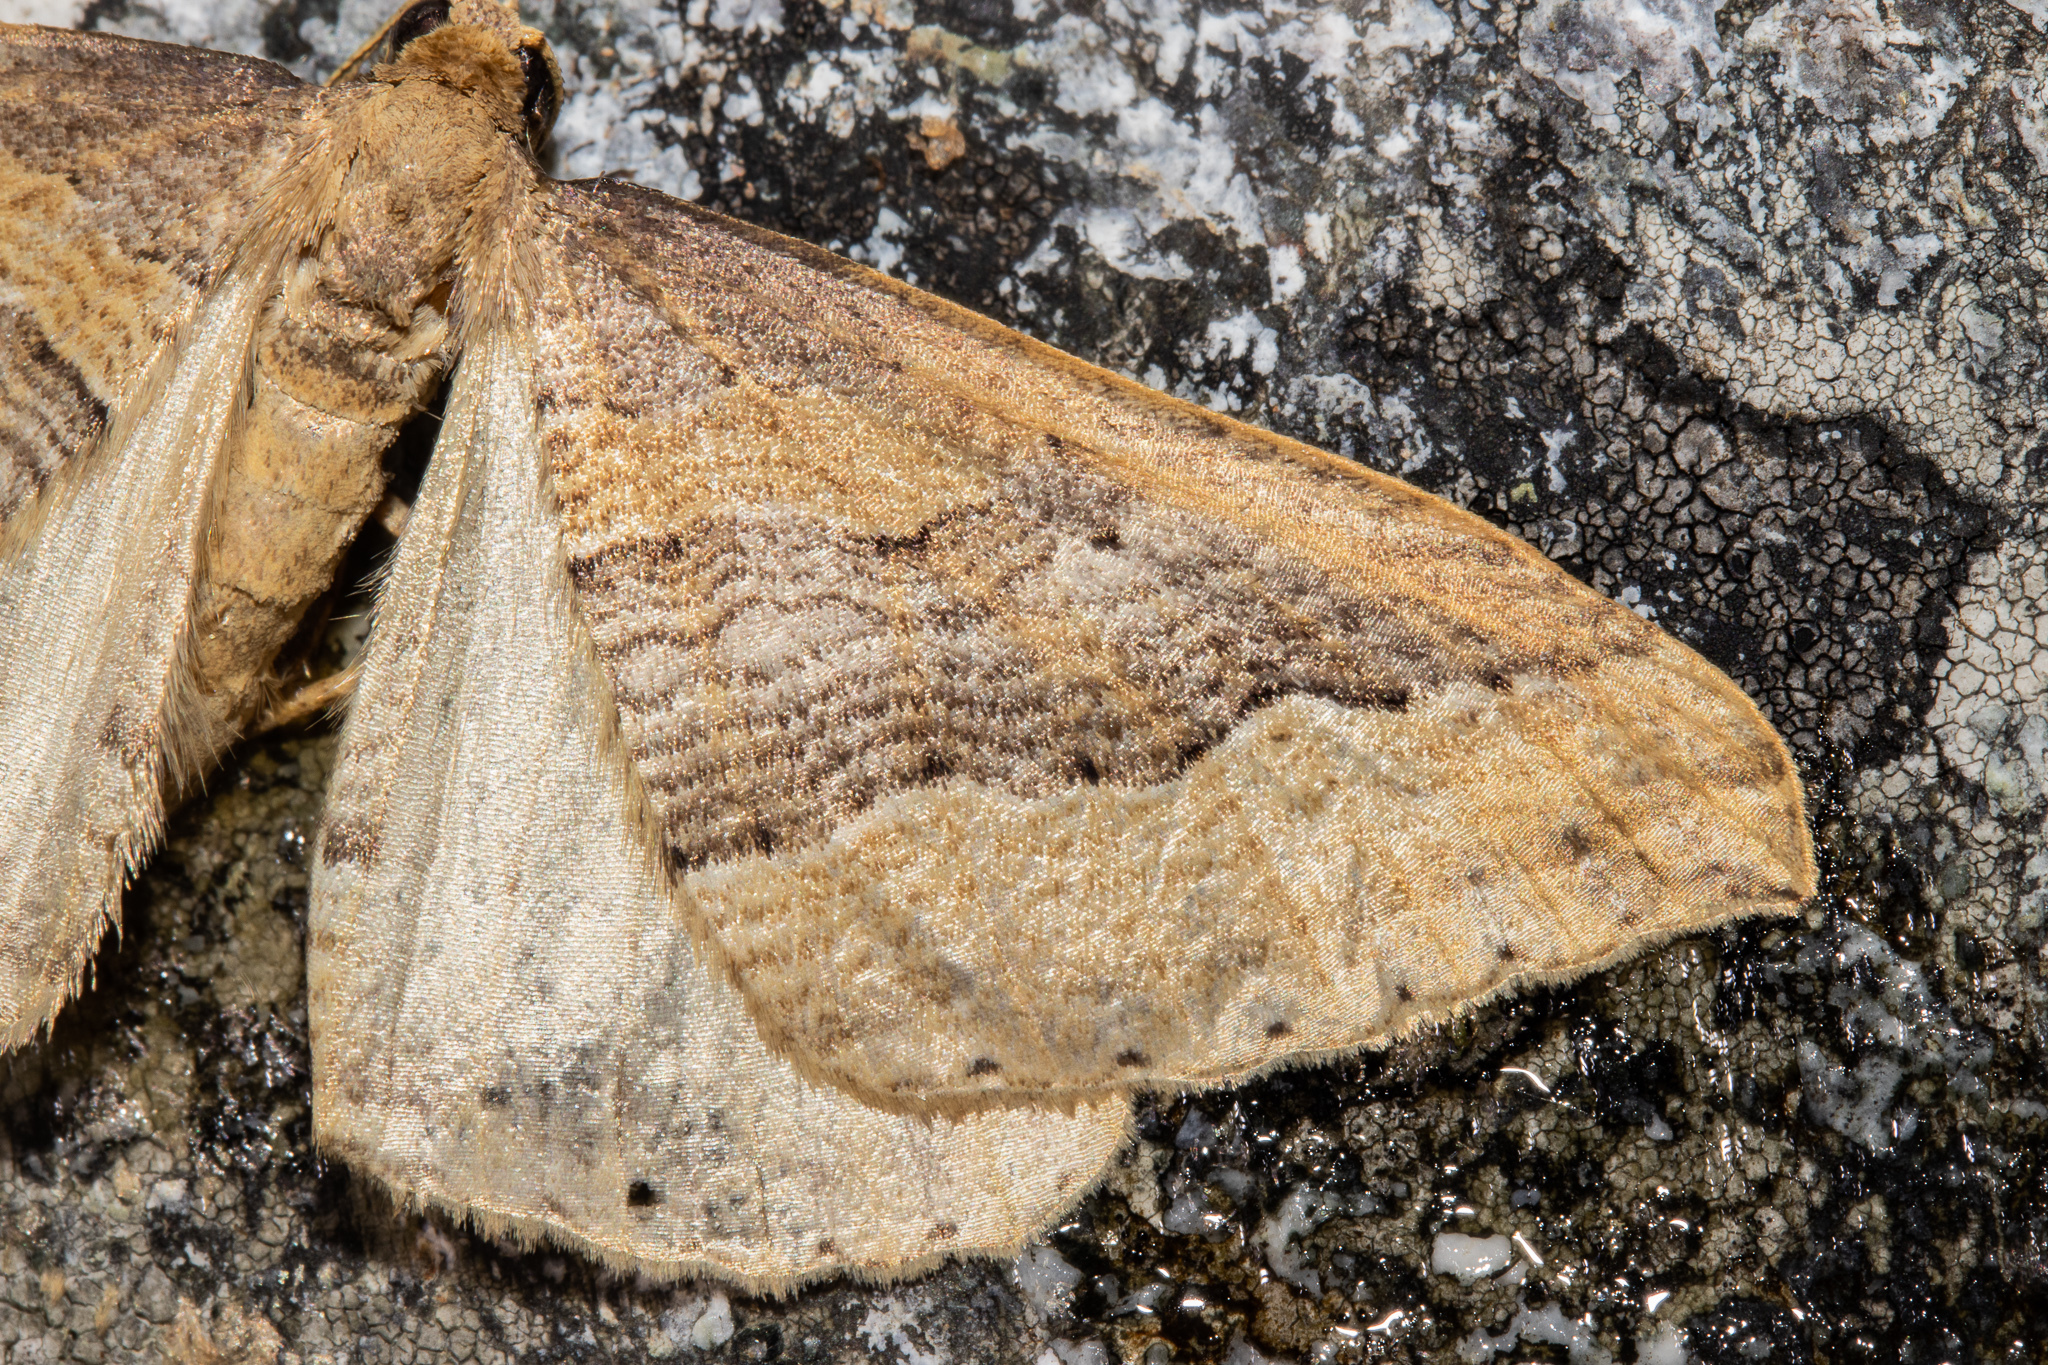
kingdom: Animalia
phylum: Arthropoda
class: Insecta
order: Lepidoptera
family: Geometridae
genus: Austrocidaria
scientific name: Austrocidaria stricta
